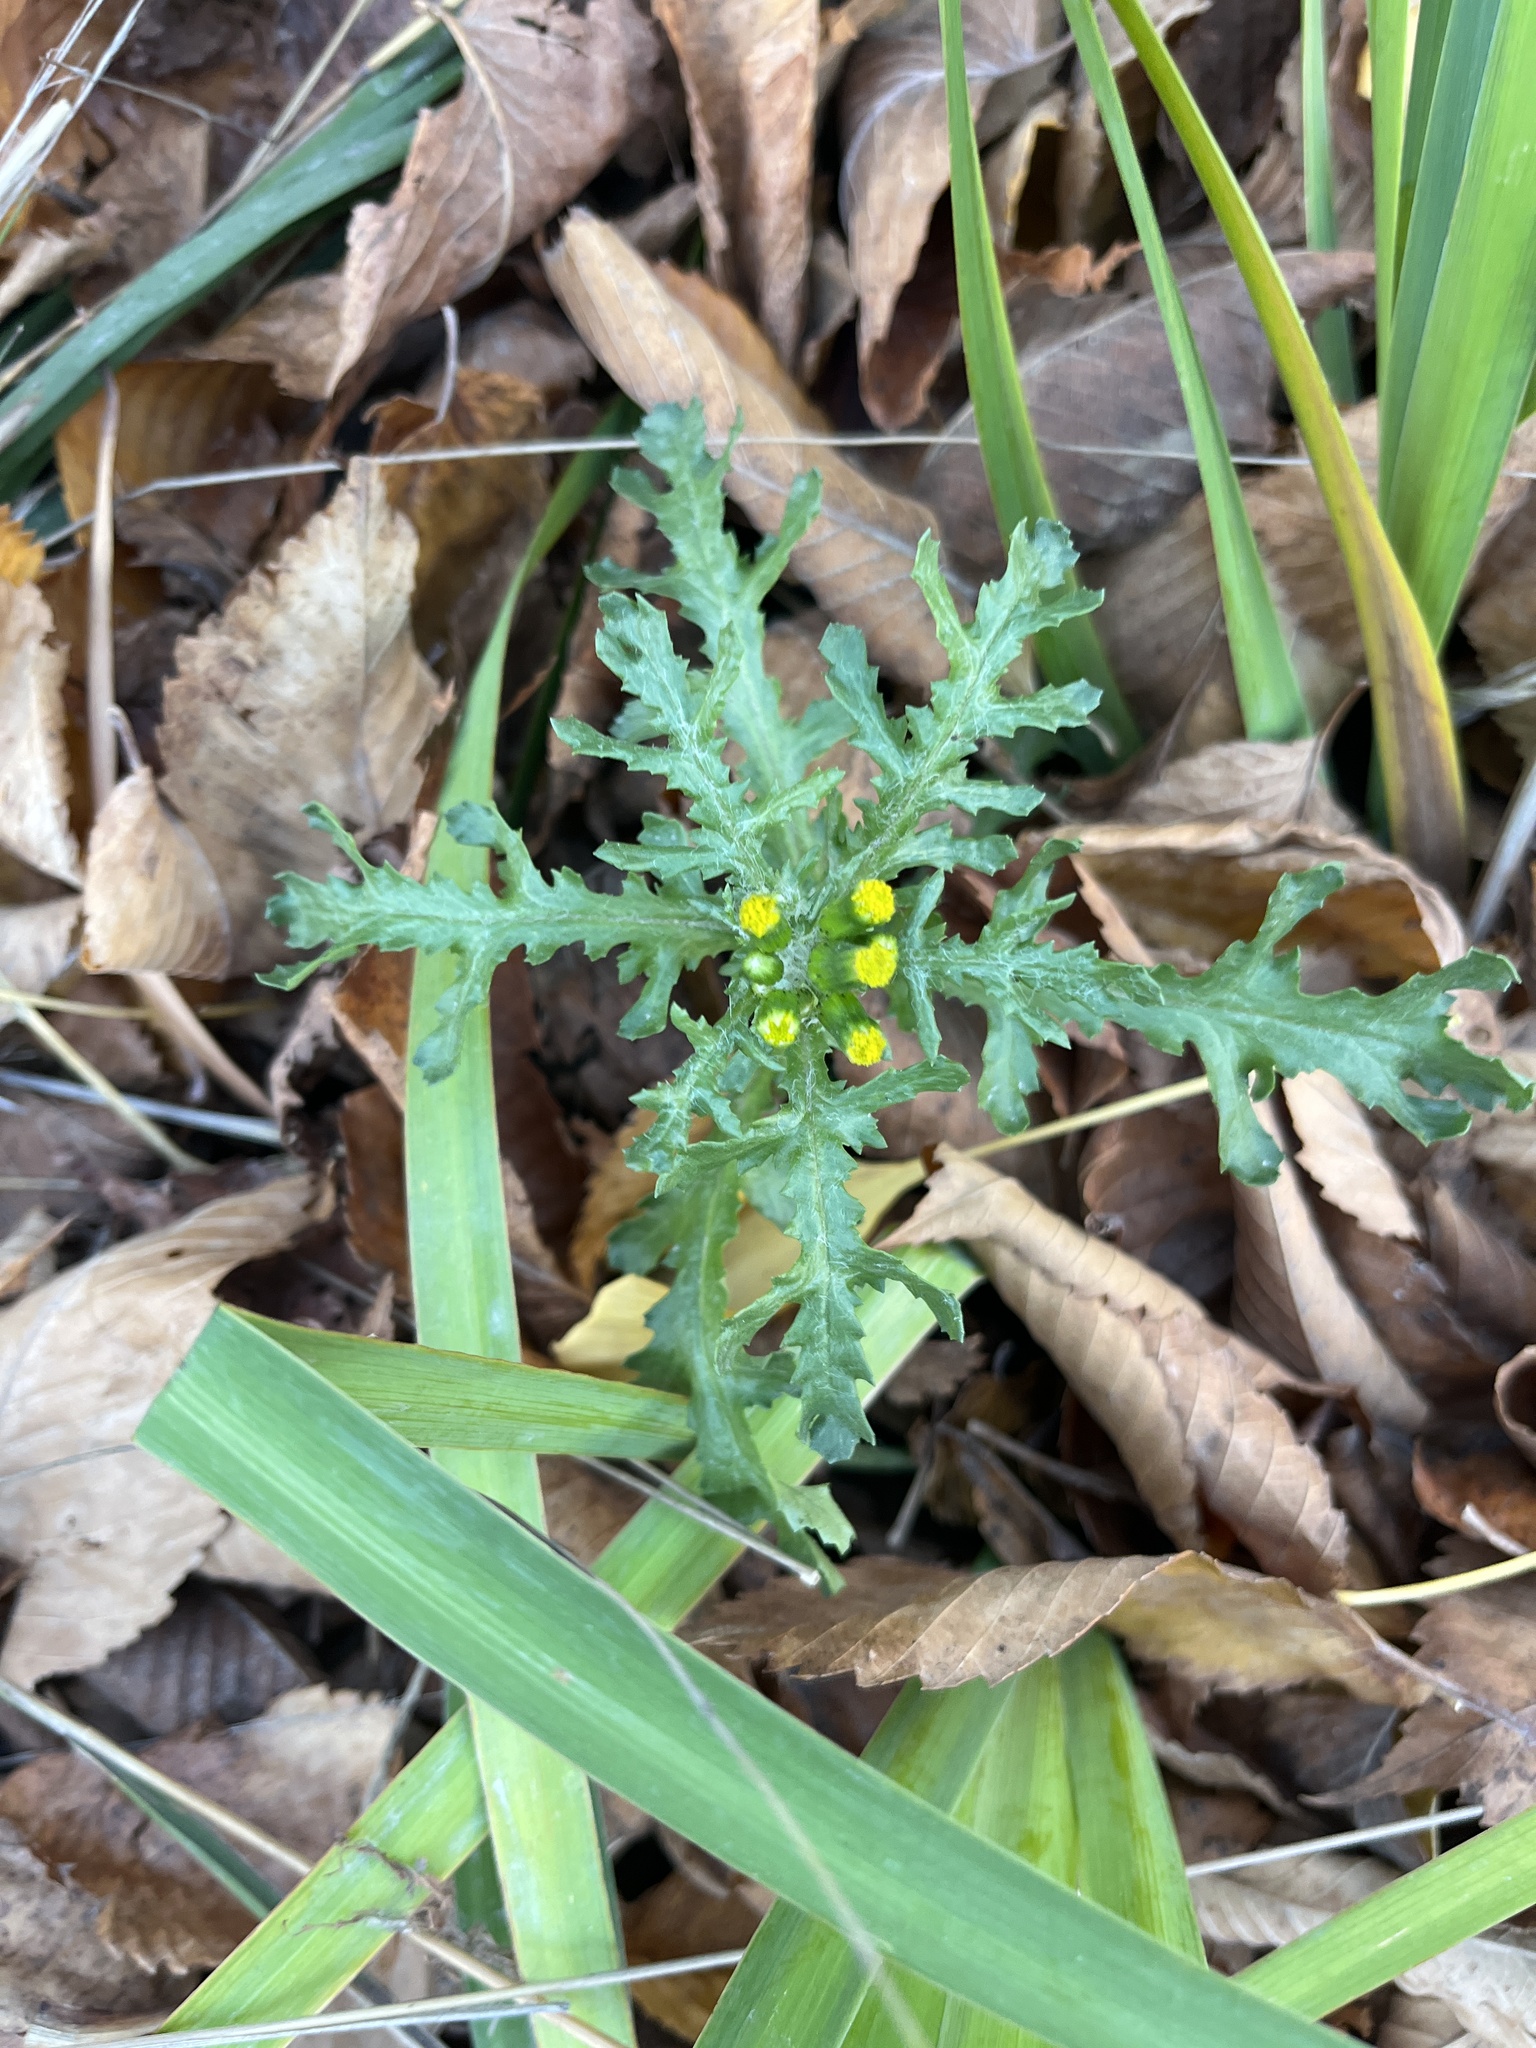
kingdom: Plantae
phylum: Tracheophyta
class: Magnoliopsida
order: Asterales
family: Asteraceae
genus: Senecio
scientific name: Senecio vulgaris
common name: Old-man-in-the-spring
